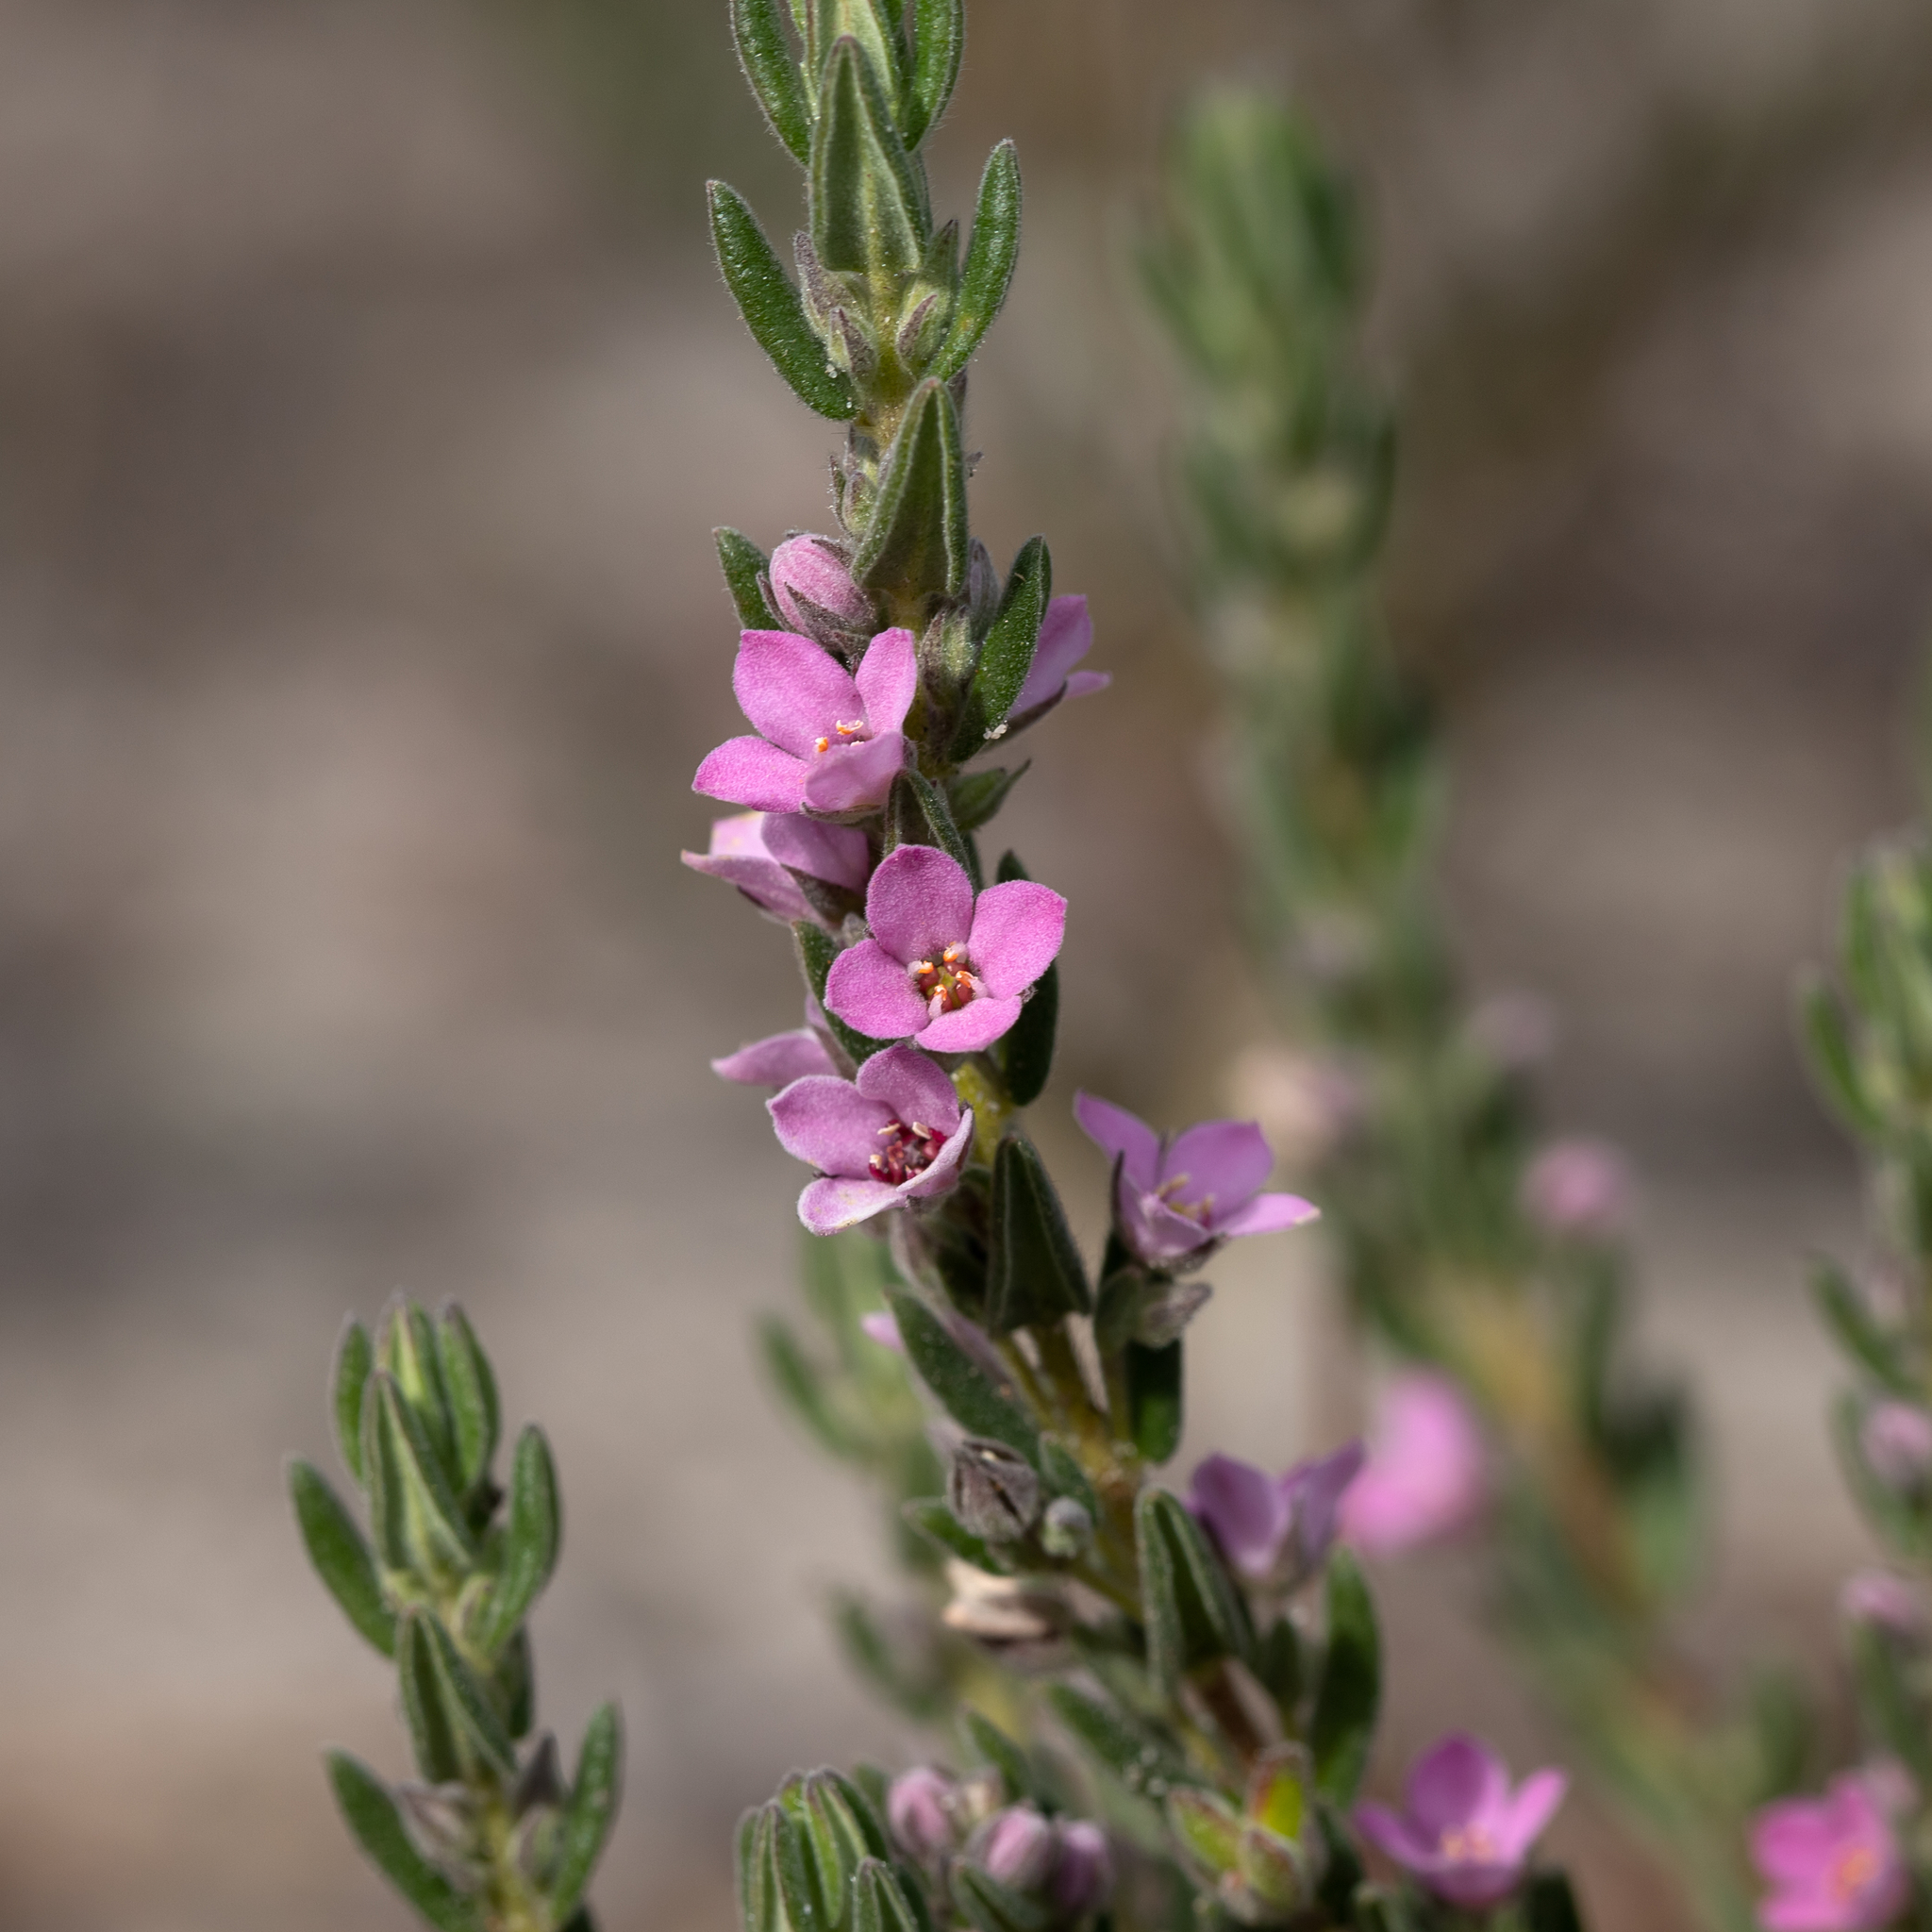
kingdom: Plantae
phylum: Tracheophyta
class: Magnoliopsida
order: Sapindales
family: Rutaceae
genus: Zieria
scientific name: Zieria veronicea
